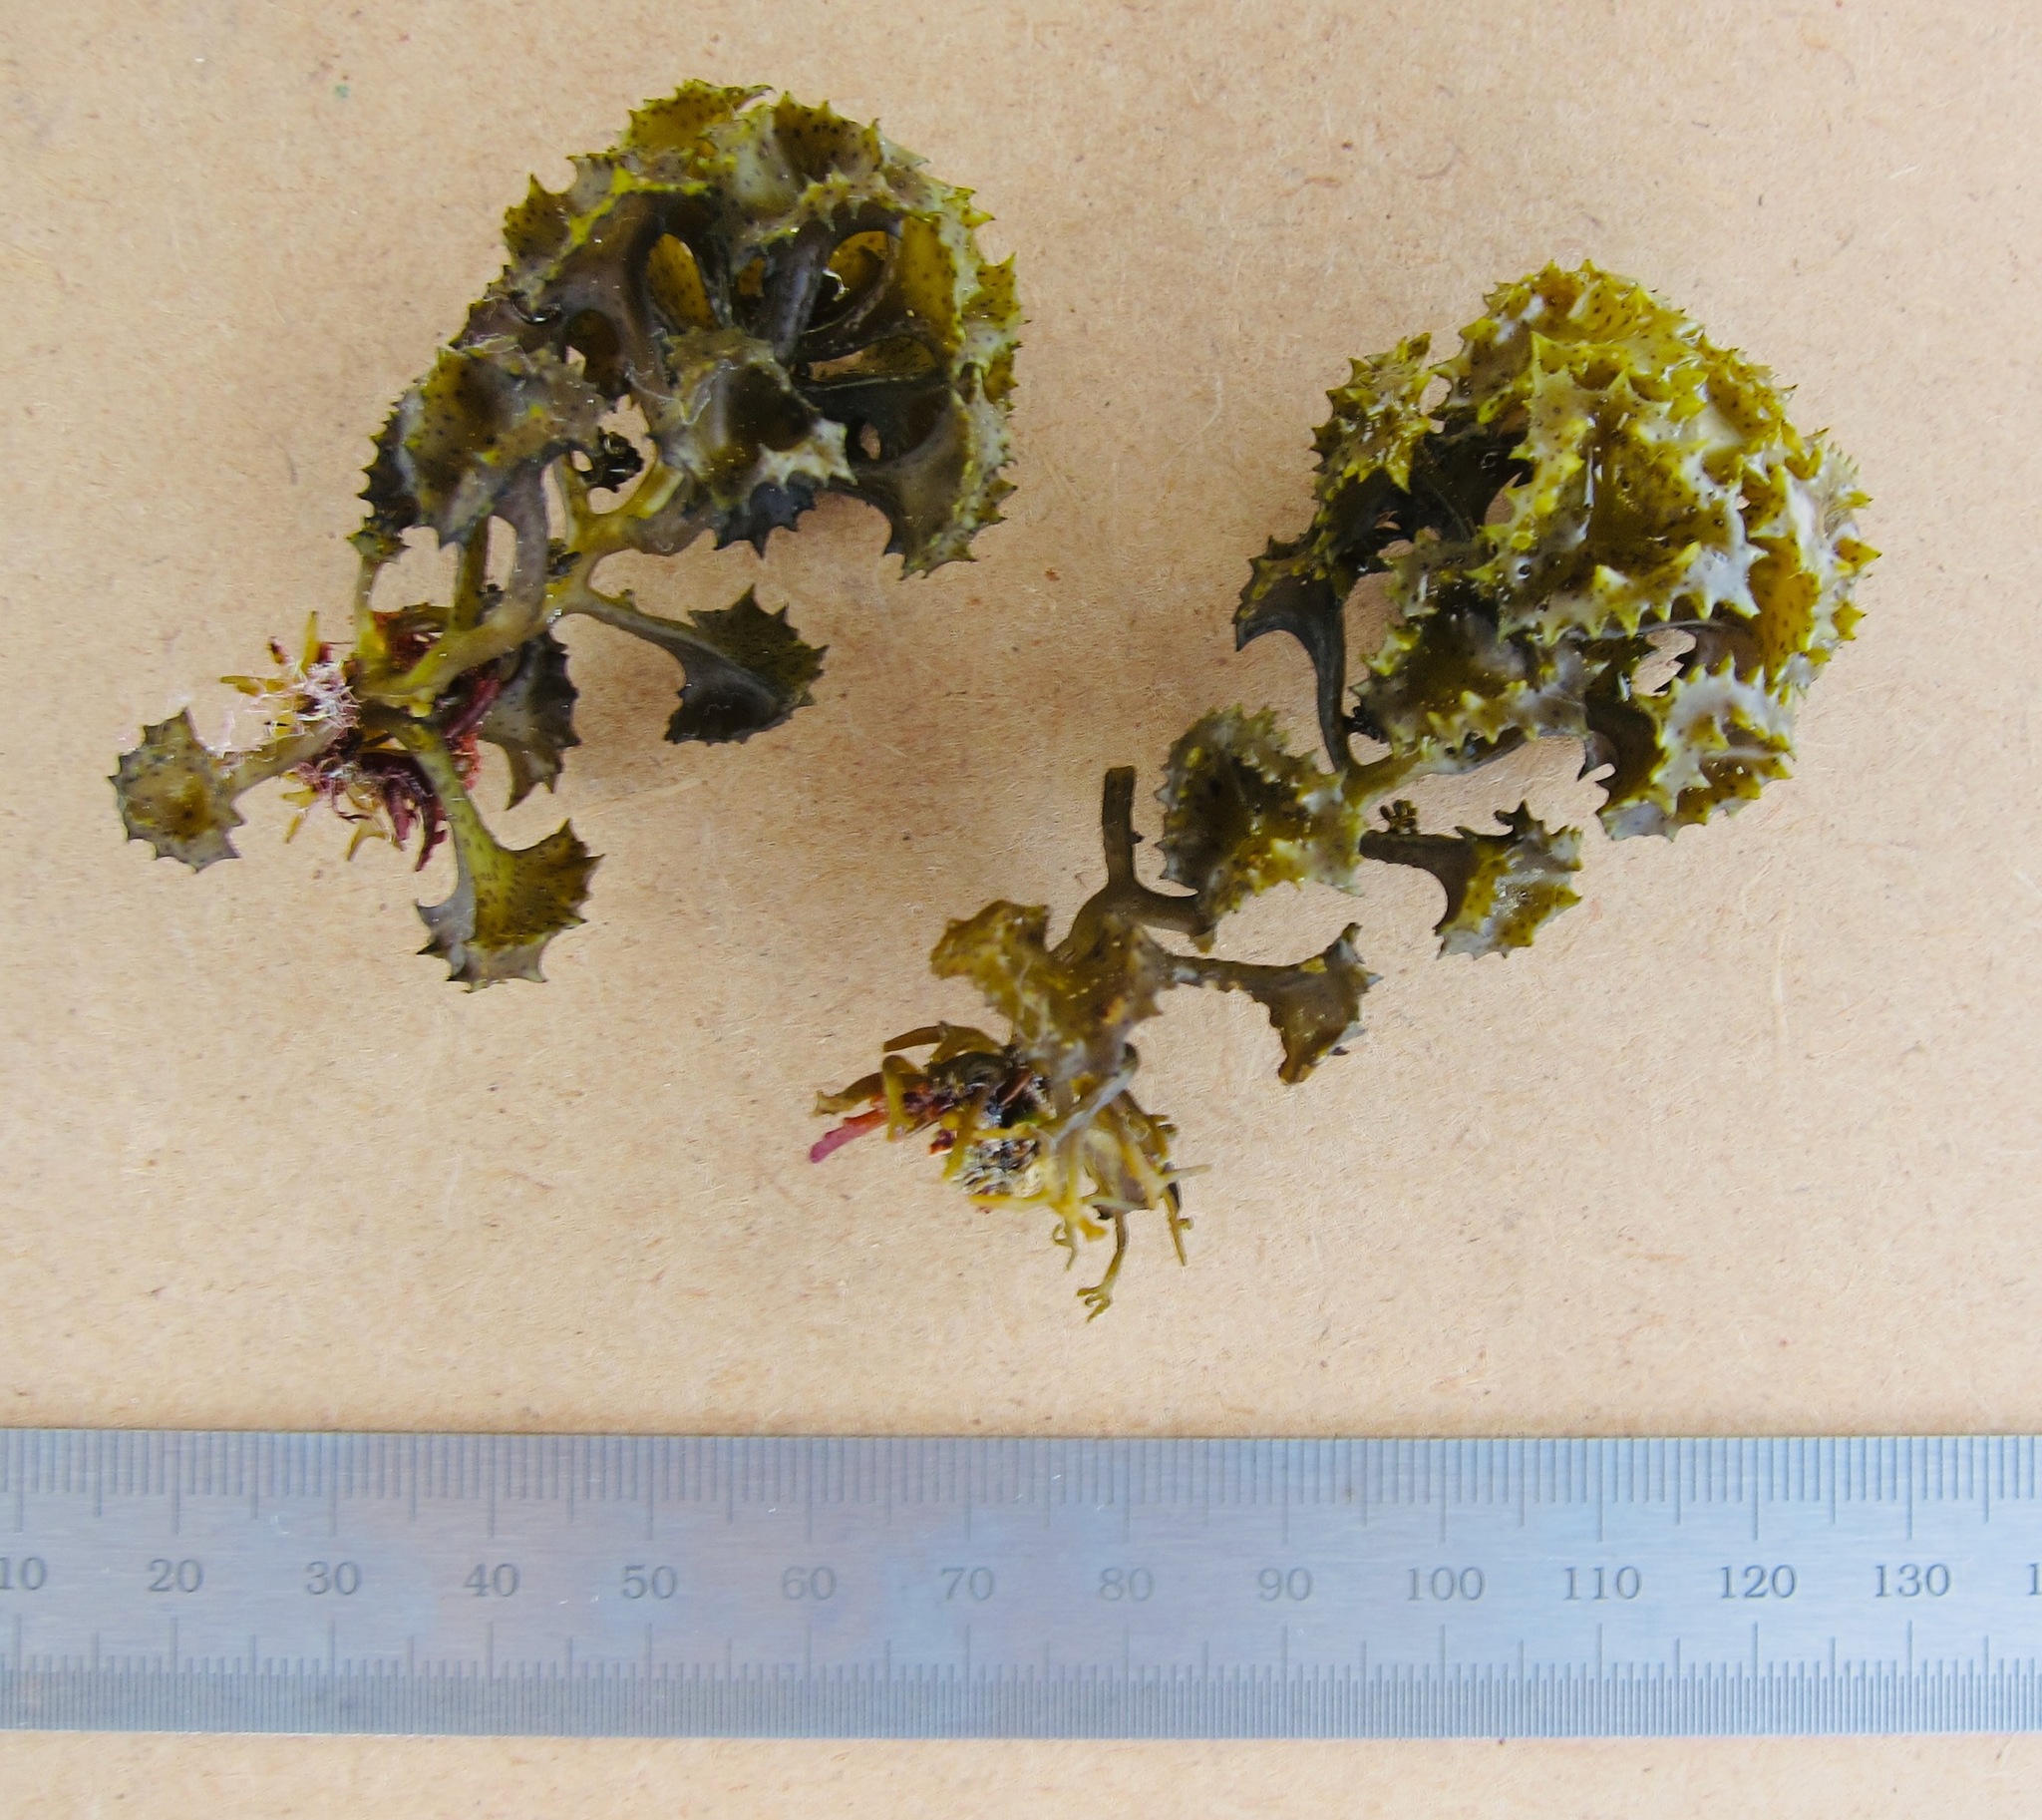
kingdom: Chromista
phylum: Ochrophyta
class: Phaeophyceae
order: Fucales
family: Sargassaceae
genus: Turbinaria
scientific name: Turbinaria ornata
